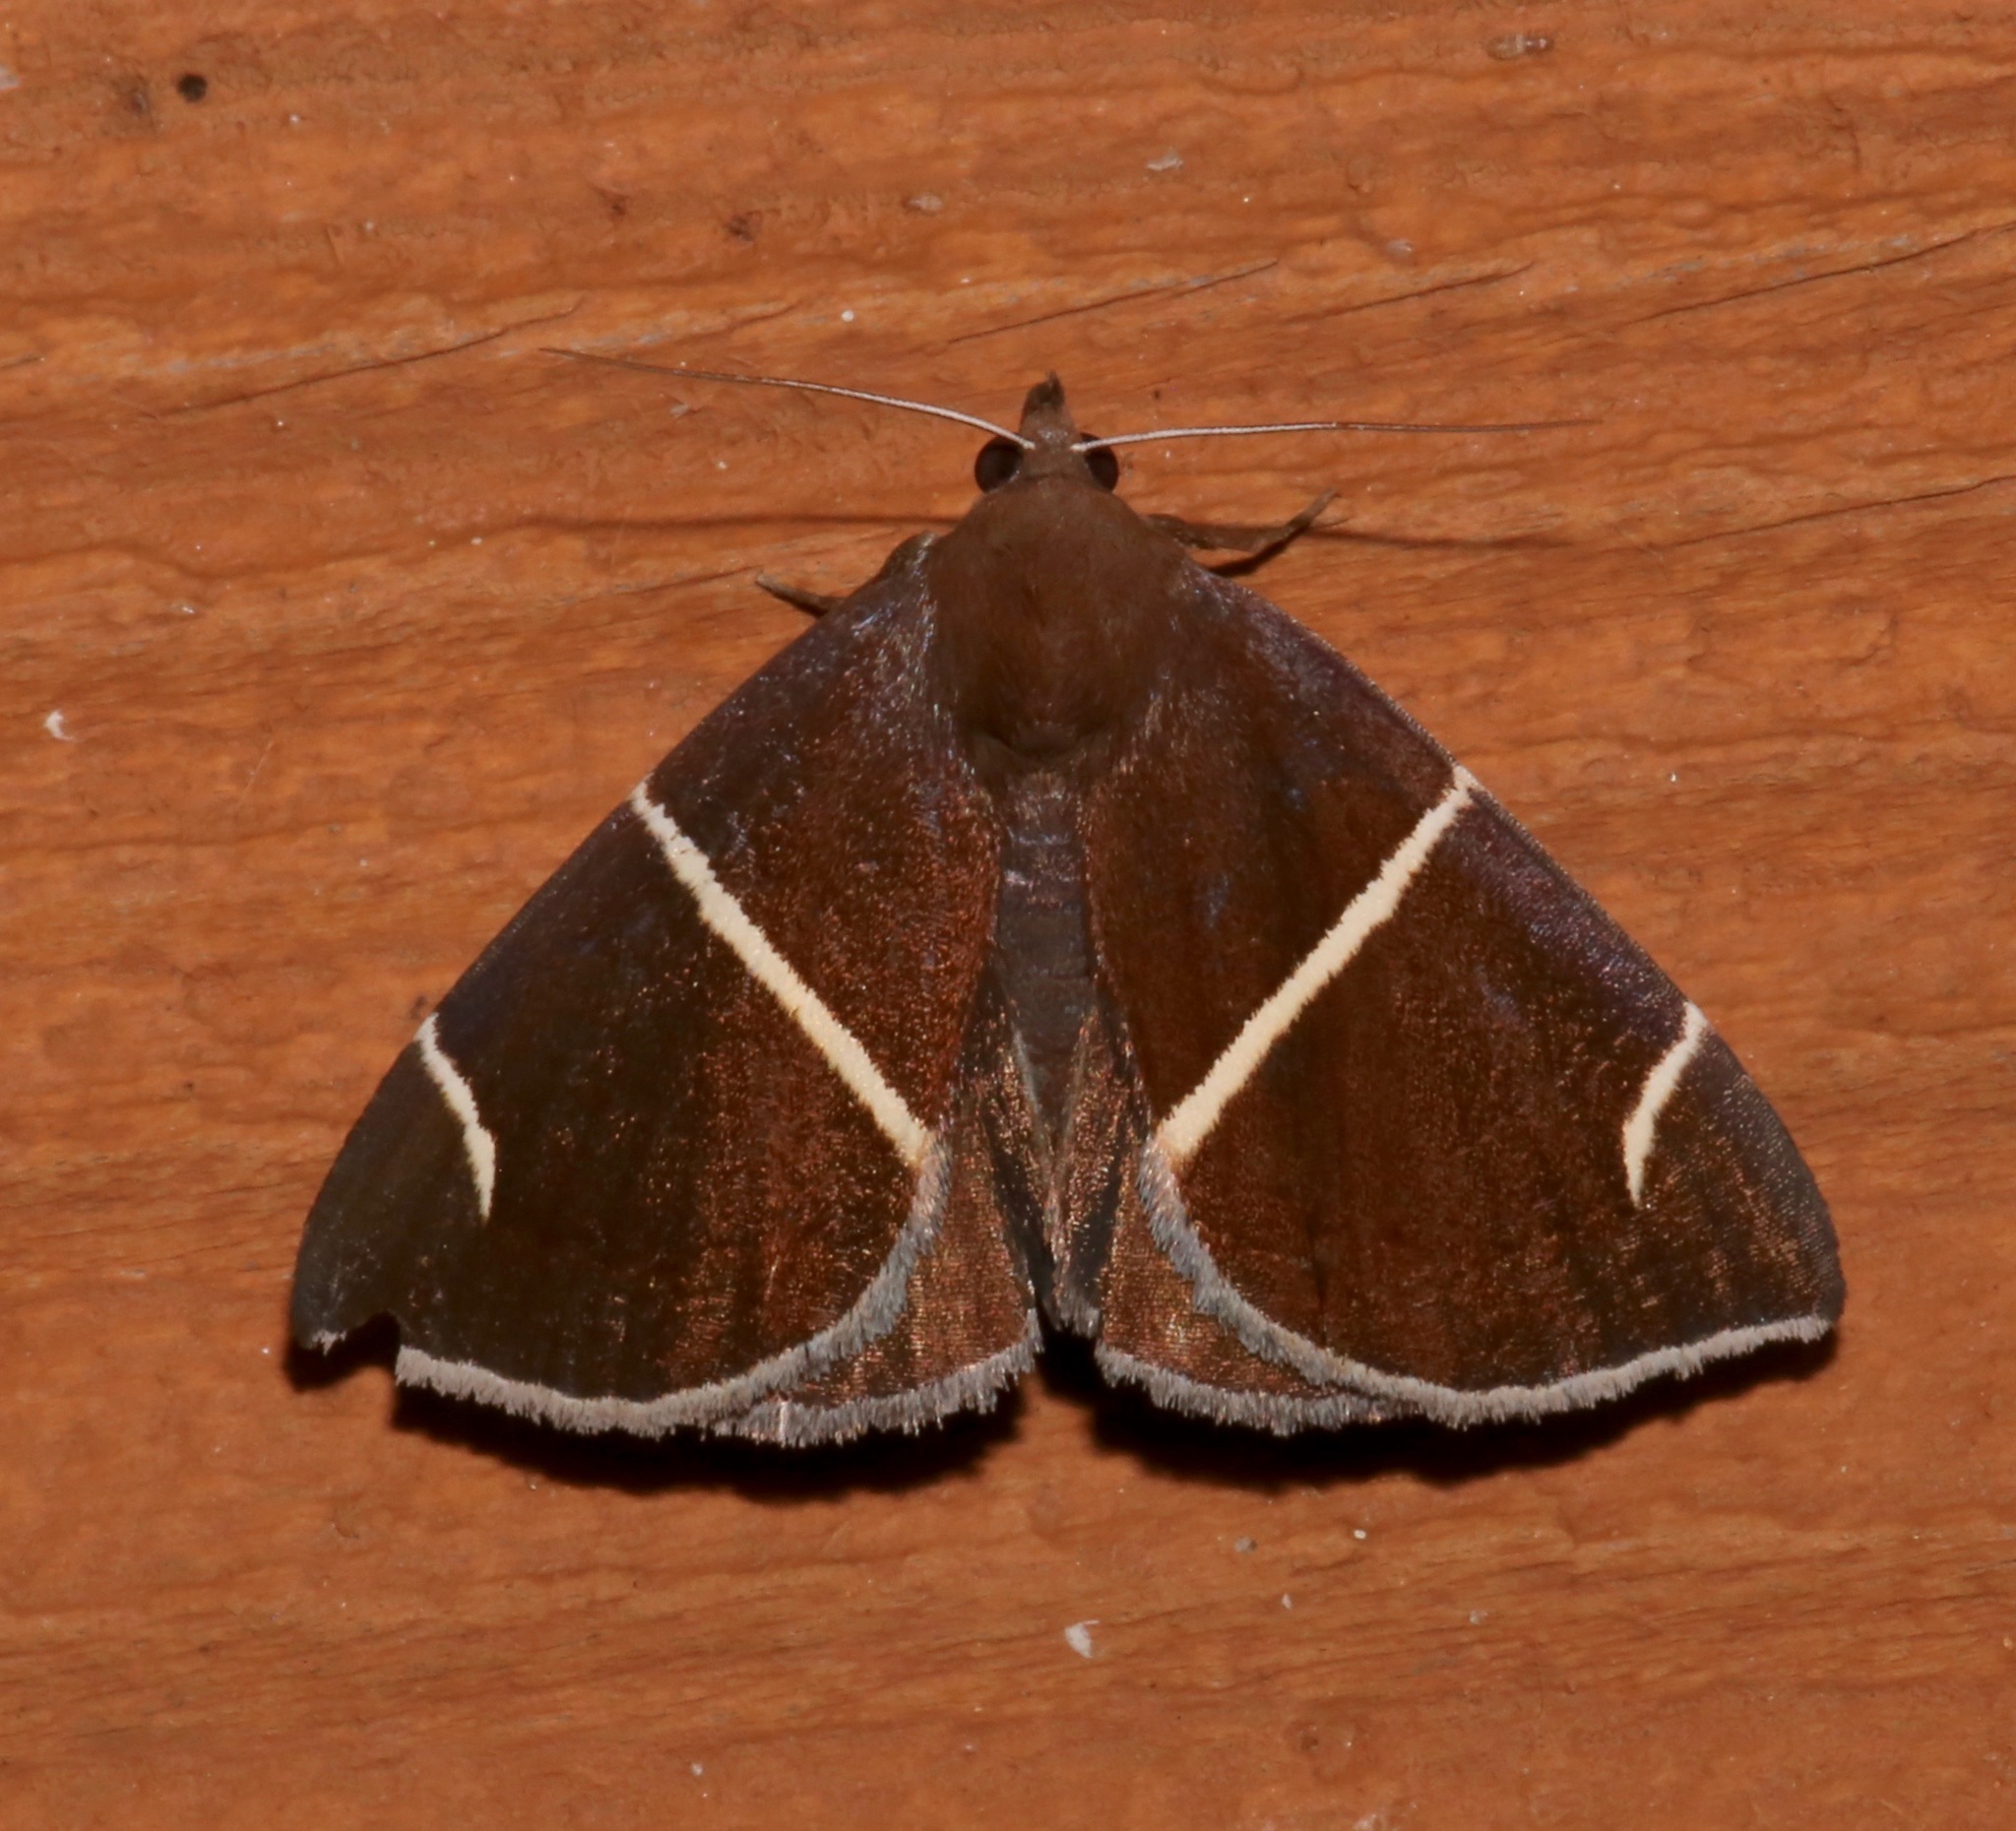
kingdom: Animalia
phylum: Arthropoda
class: Insecta
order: Lepidoptera
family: Erebidae
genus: Argyrostrotis
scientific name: Argyrostrotis anilis
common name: Short-lined chocolate
